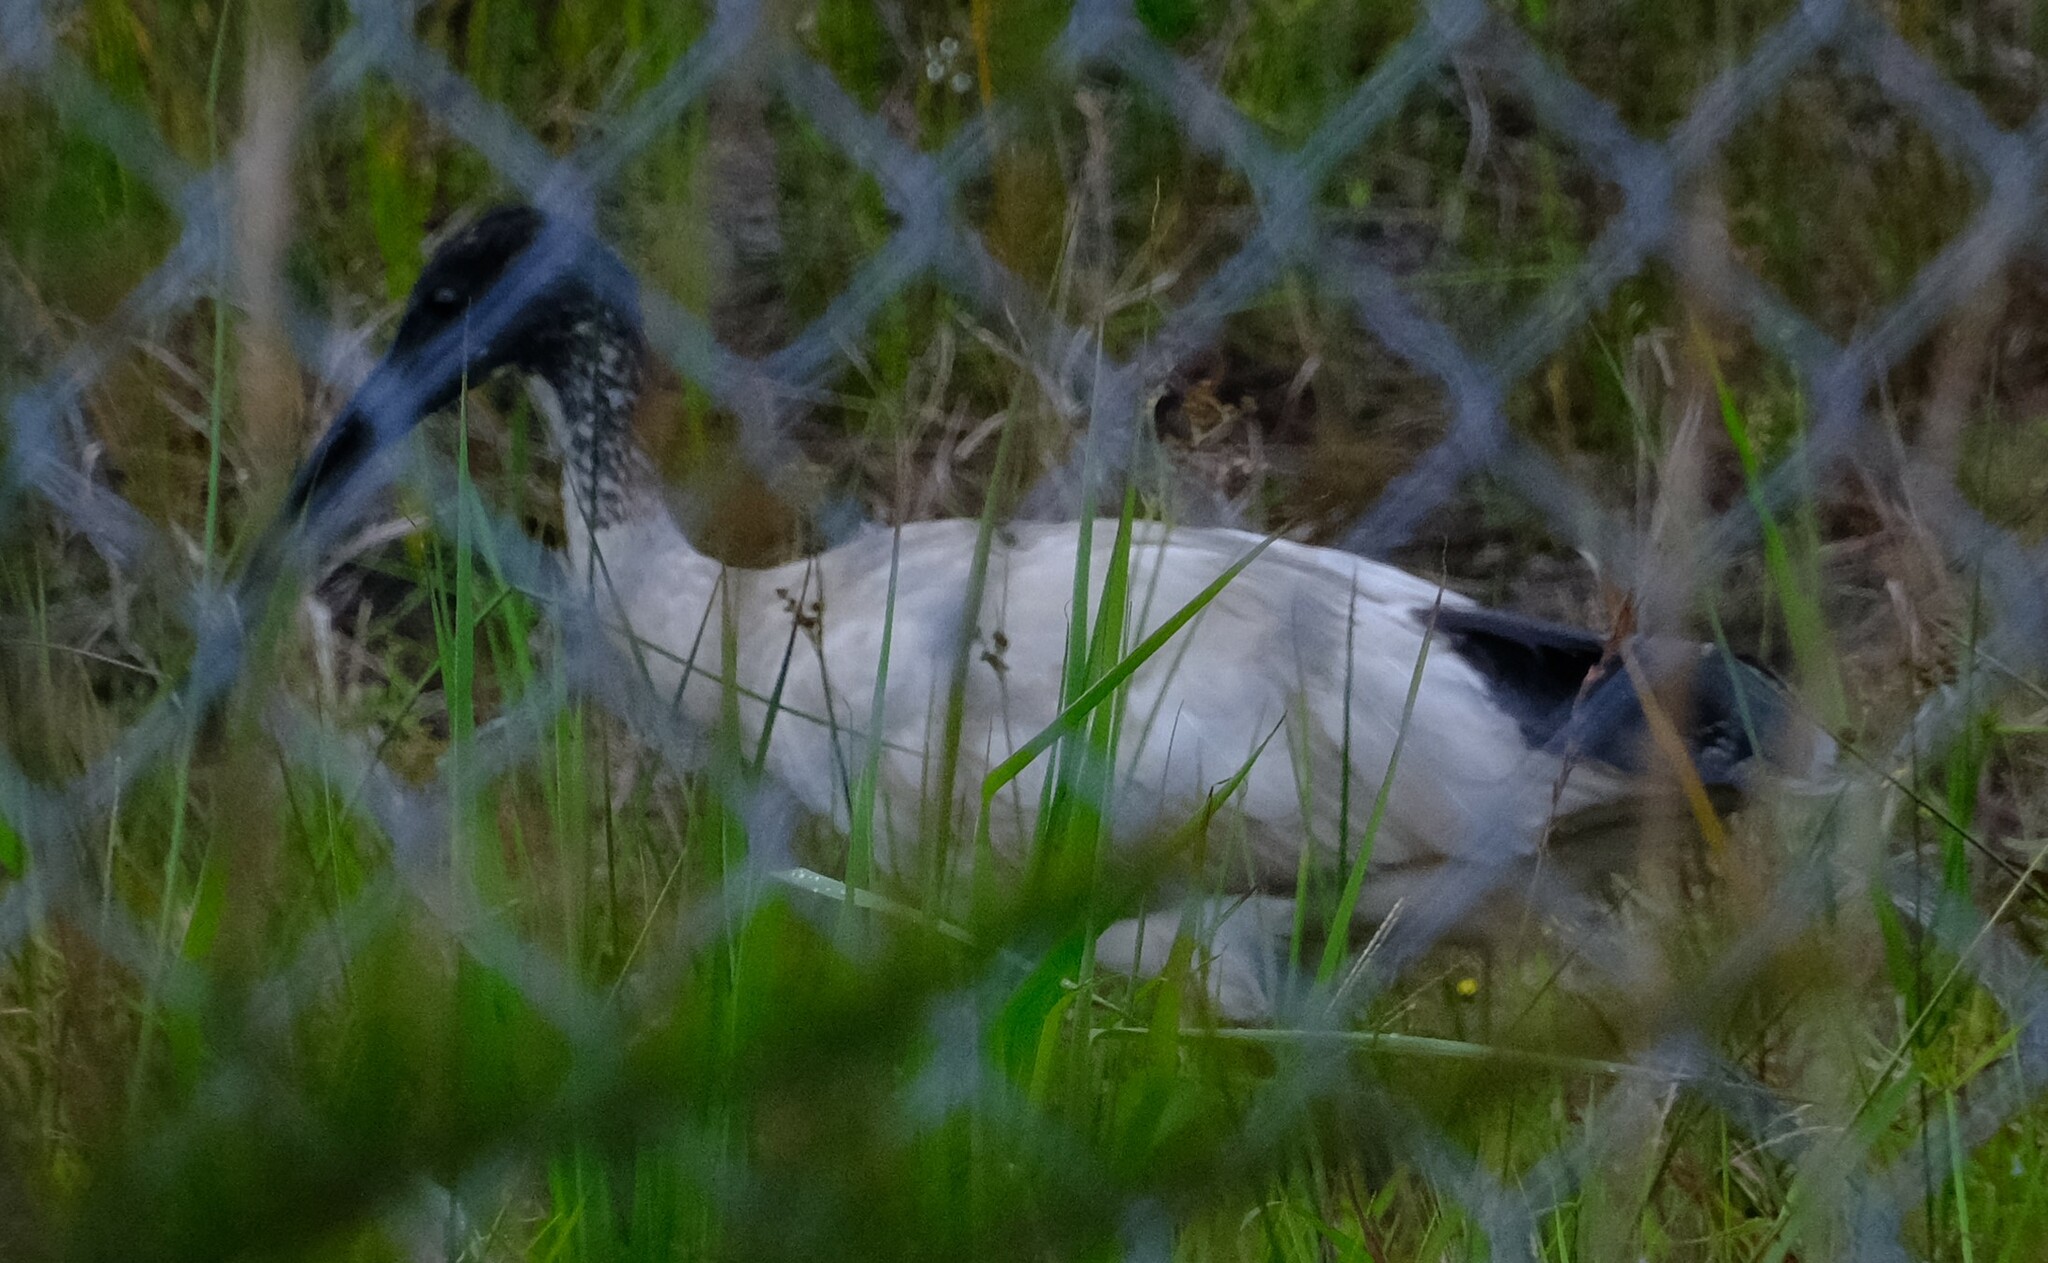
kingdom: Animalia
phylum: Chordata
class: Aves
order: Pelecaniformes
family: Threskiornithidae
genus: Threskiornis
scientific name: Threskiornis molucca
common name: Australian white ibis
